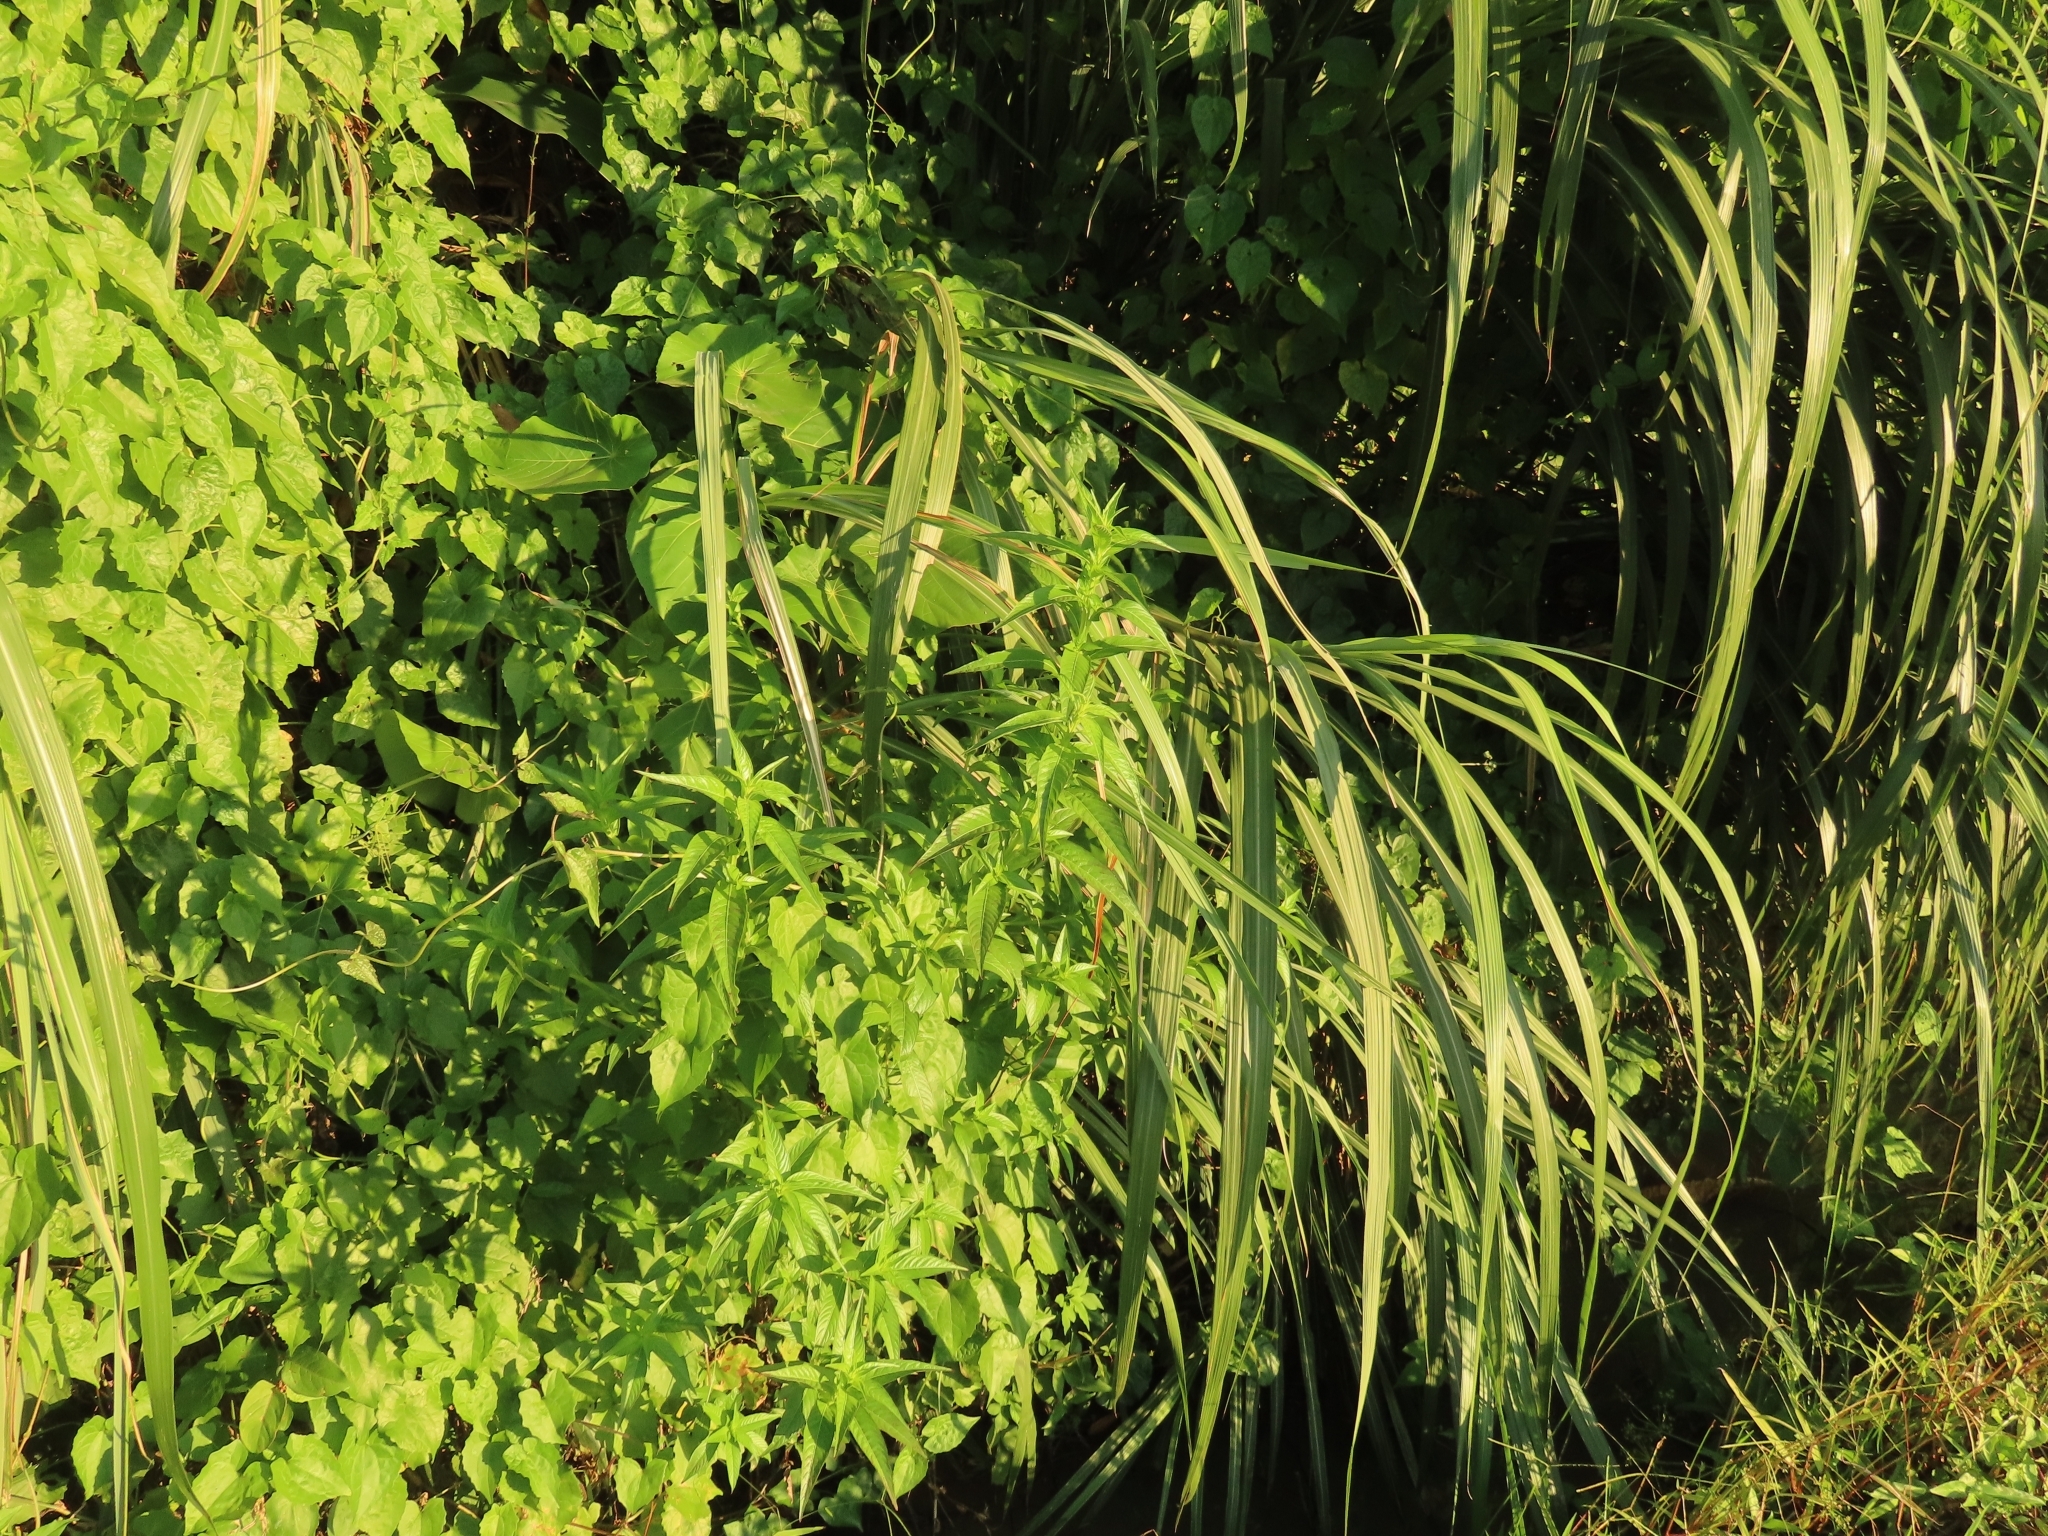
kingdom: Plantae
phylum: Tracheophyta
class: Magnoliopsida
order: Myrtales
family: Onagraceae
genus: Ludwigia
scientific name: Ludwigia decurrens
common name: Winged water-primrose
